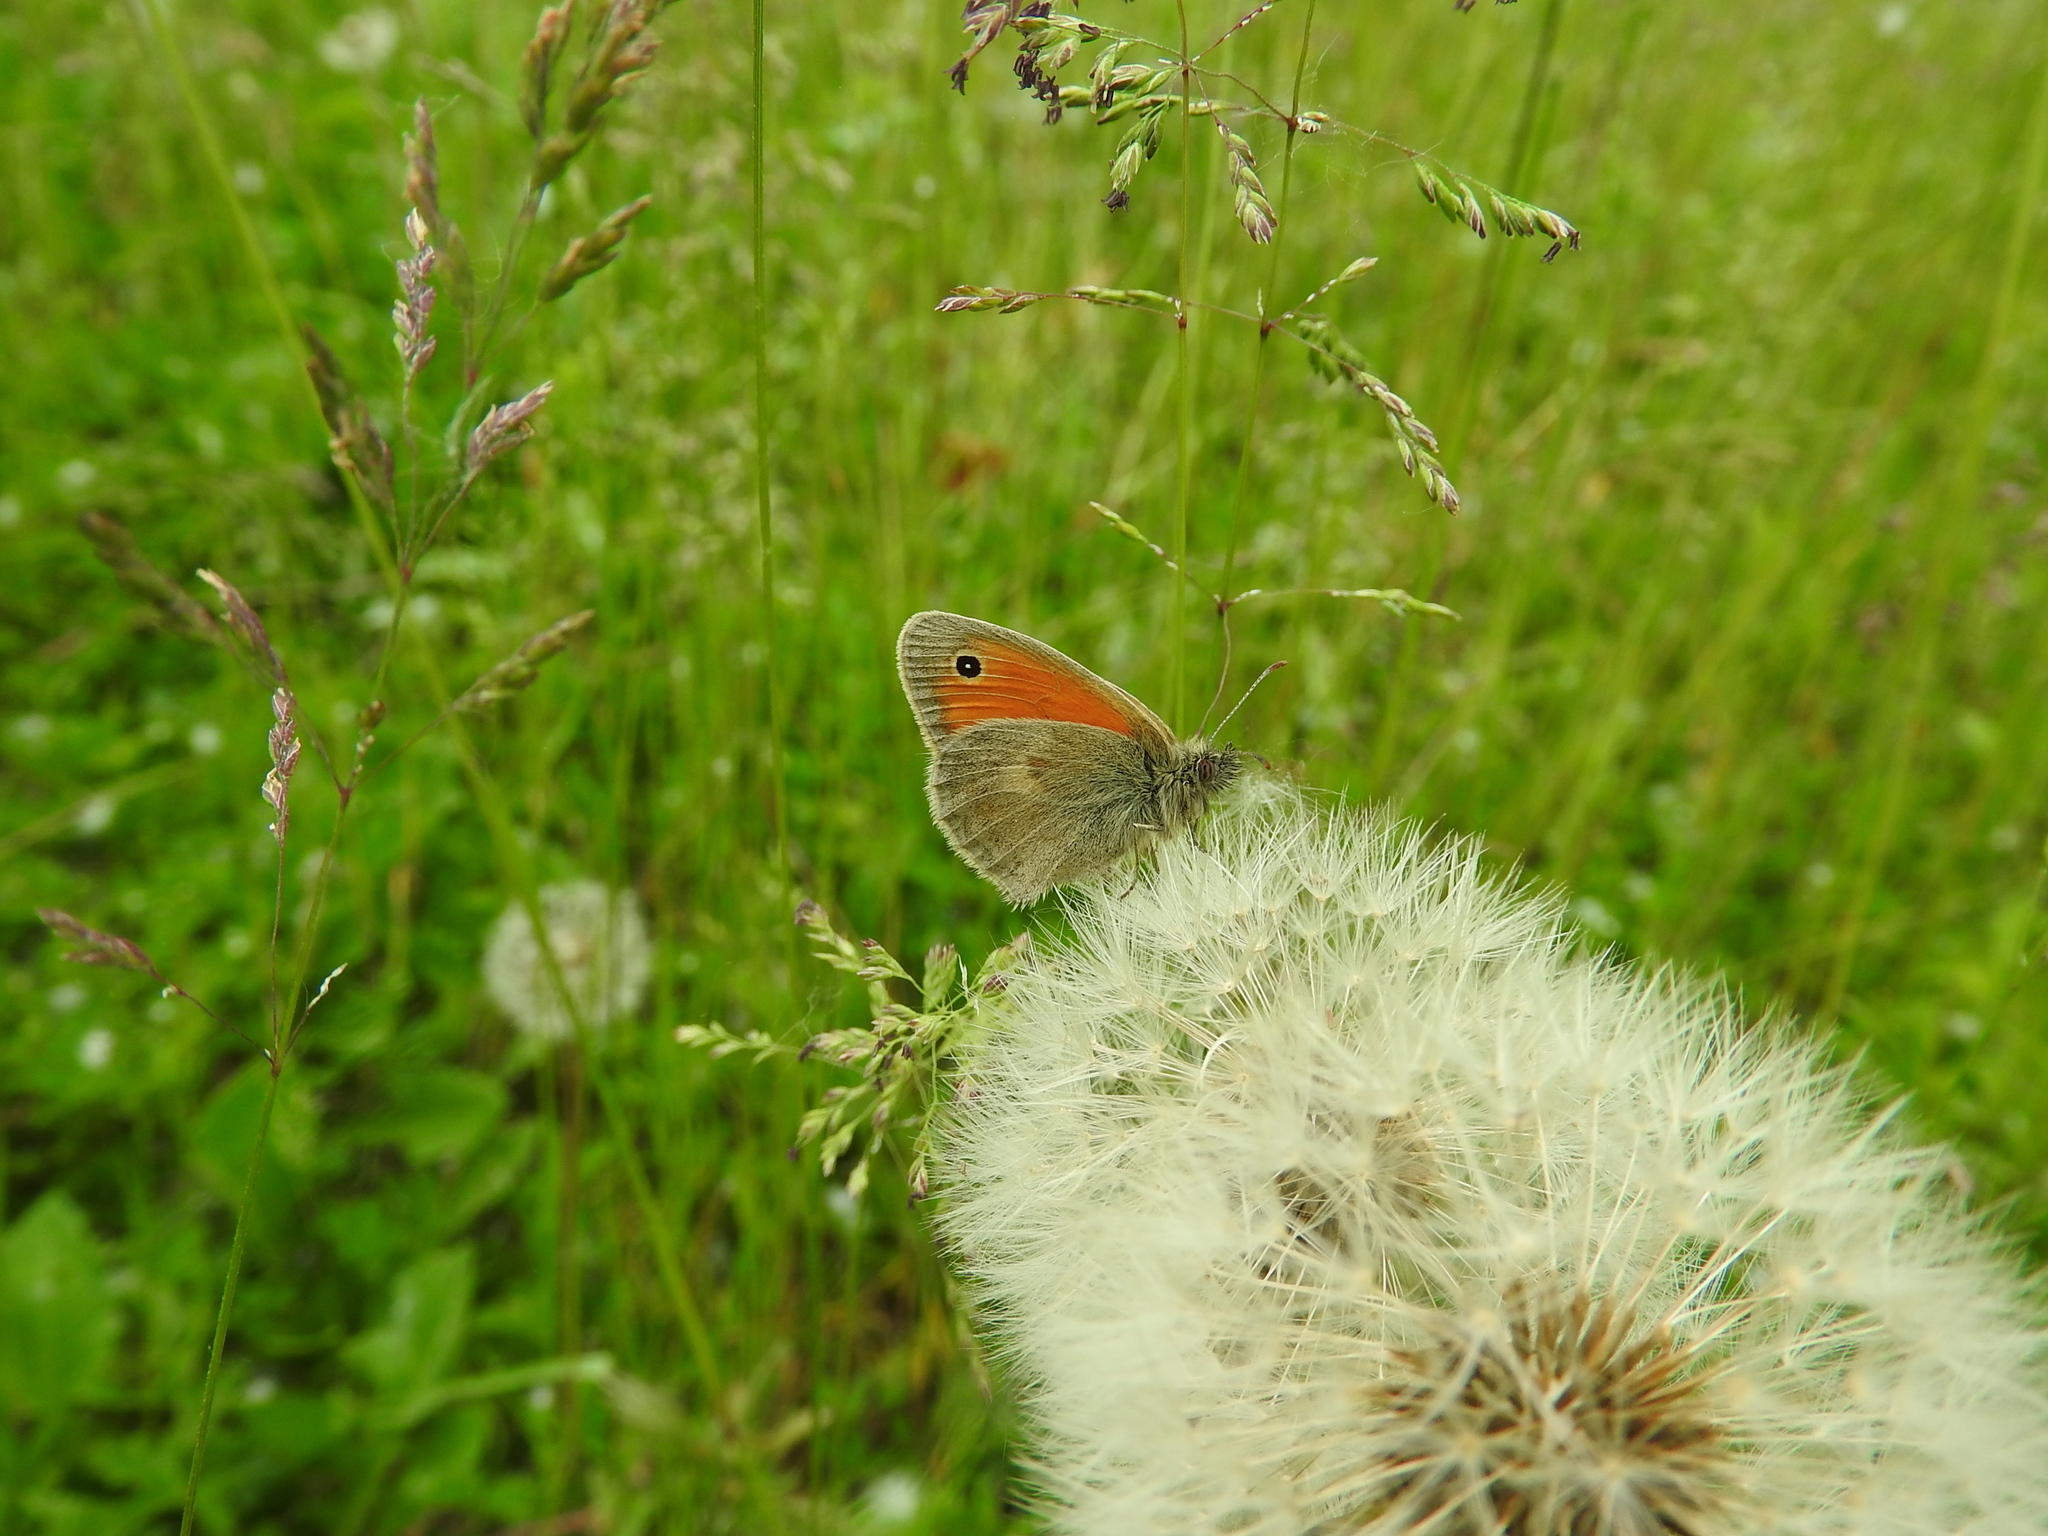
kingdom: Animalia
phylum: Arthropoda
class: Insecta
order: Lepidoptera
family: Nymphalidae
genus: Coenonympha
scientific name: Coenonympha pamphilus
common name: Small heath
